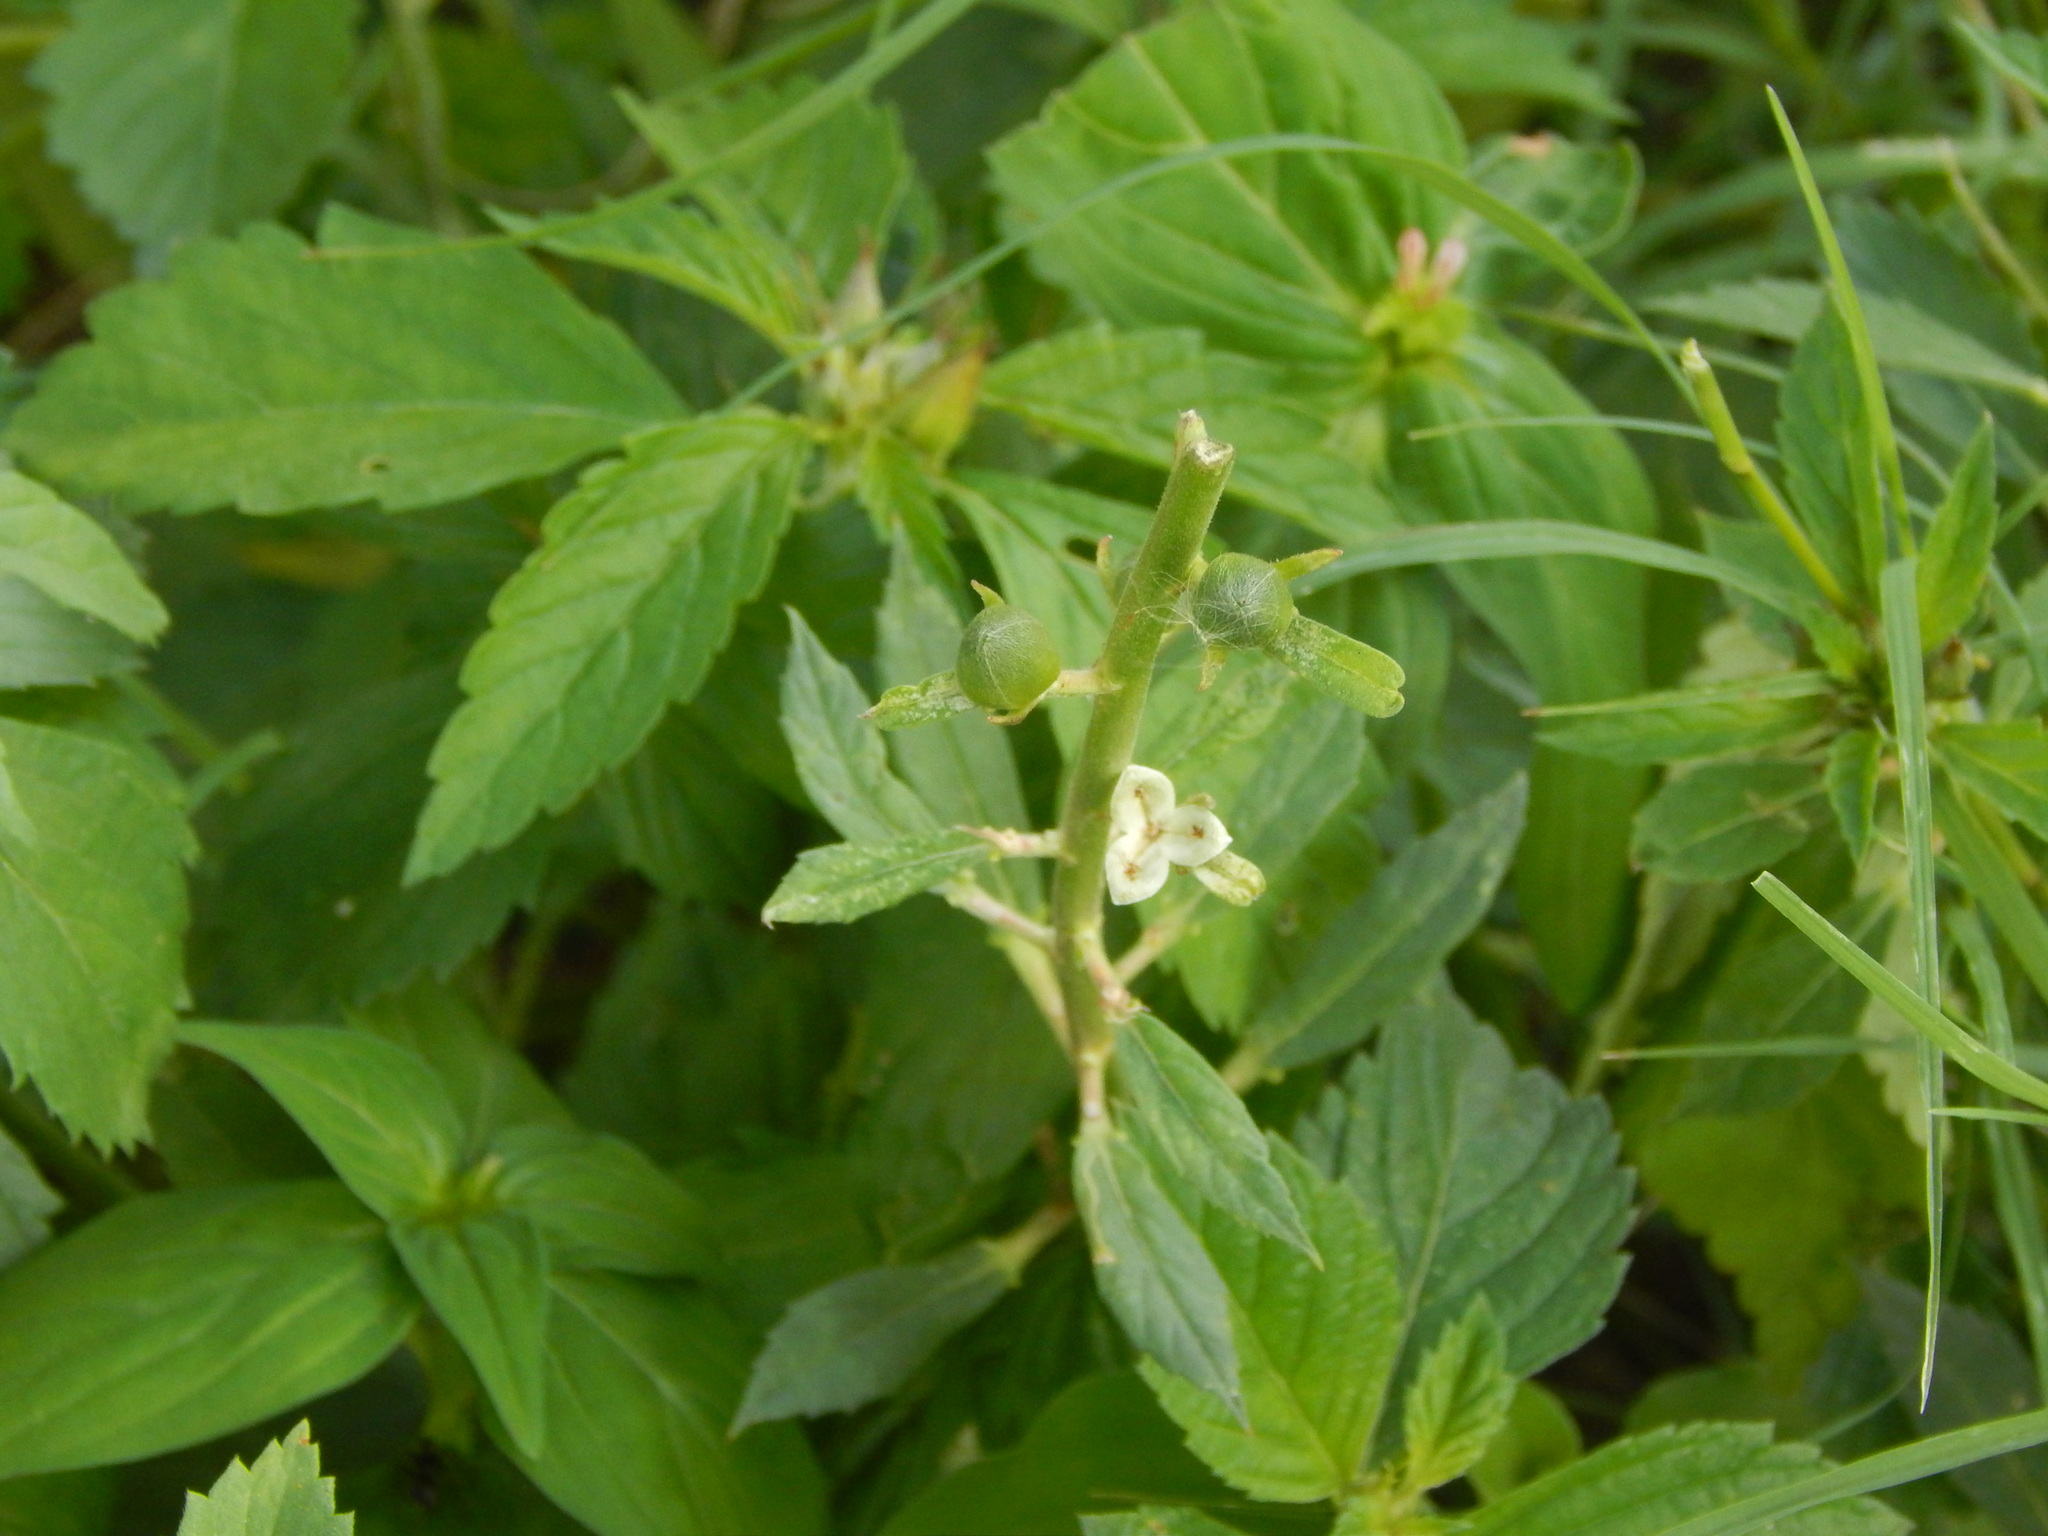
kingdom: Plantae
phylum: Tracheophyta
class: Magnoliopsida
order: Malpighiales
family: Turneraceae
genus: Turnera
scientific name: Turnera subulata
